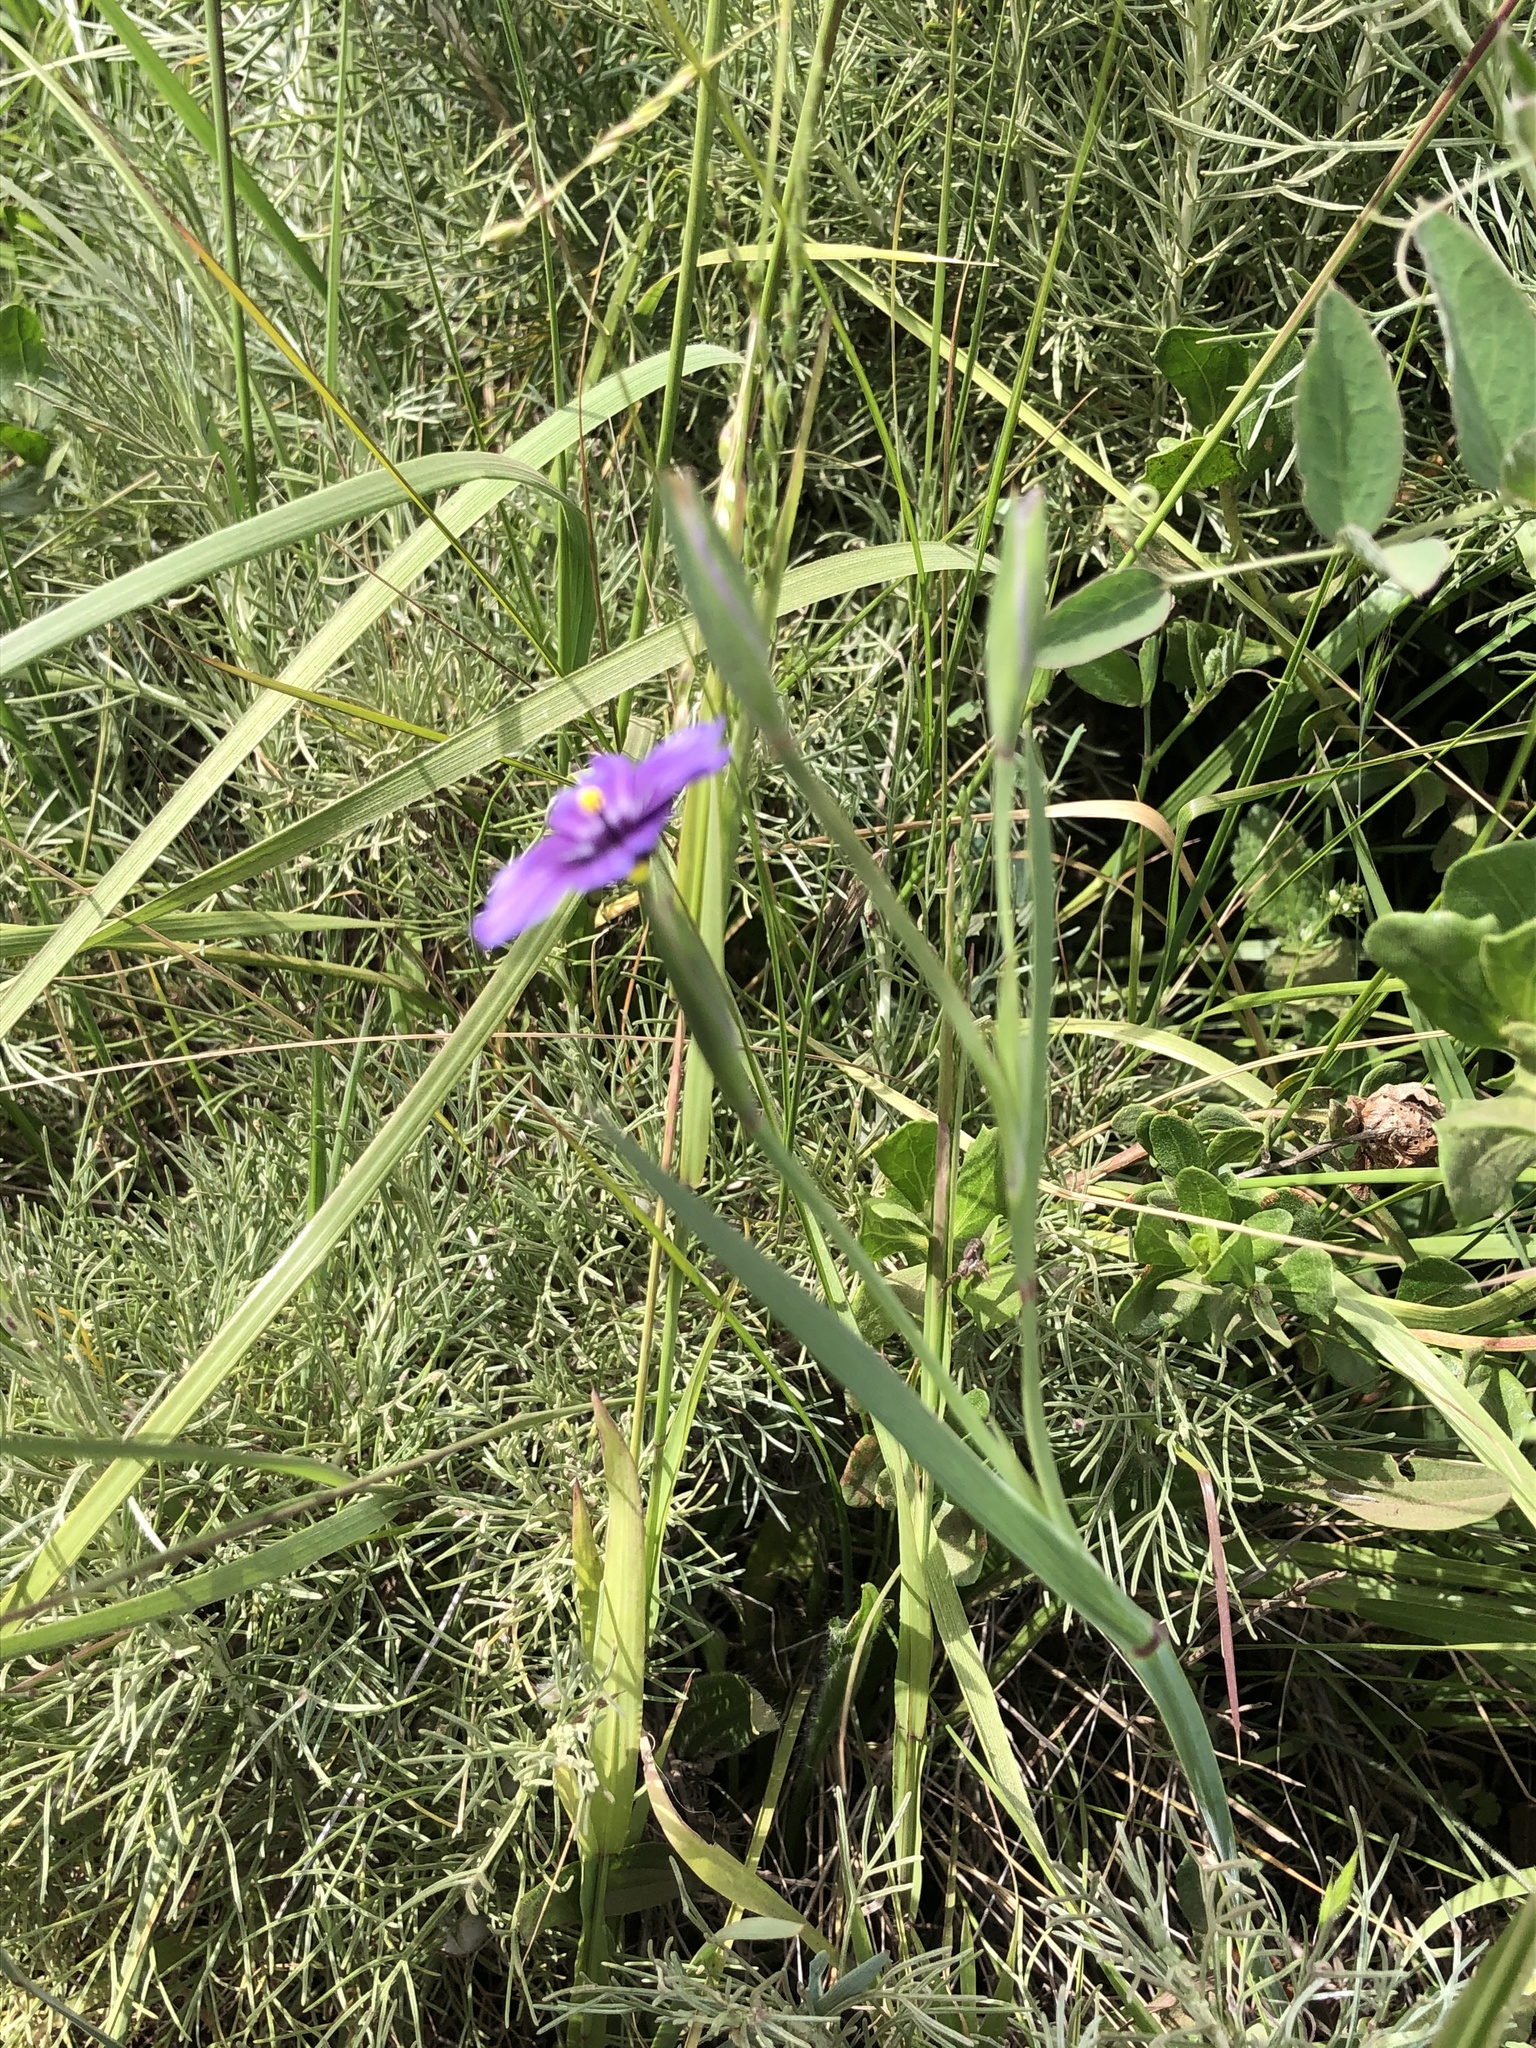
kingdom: Plantae
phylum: Tracheophyta
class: Liliopsida
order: Asparagales
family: Iridaceae
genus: Sisyrinchium
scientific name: Sisyrinchium bellum
